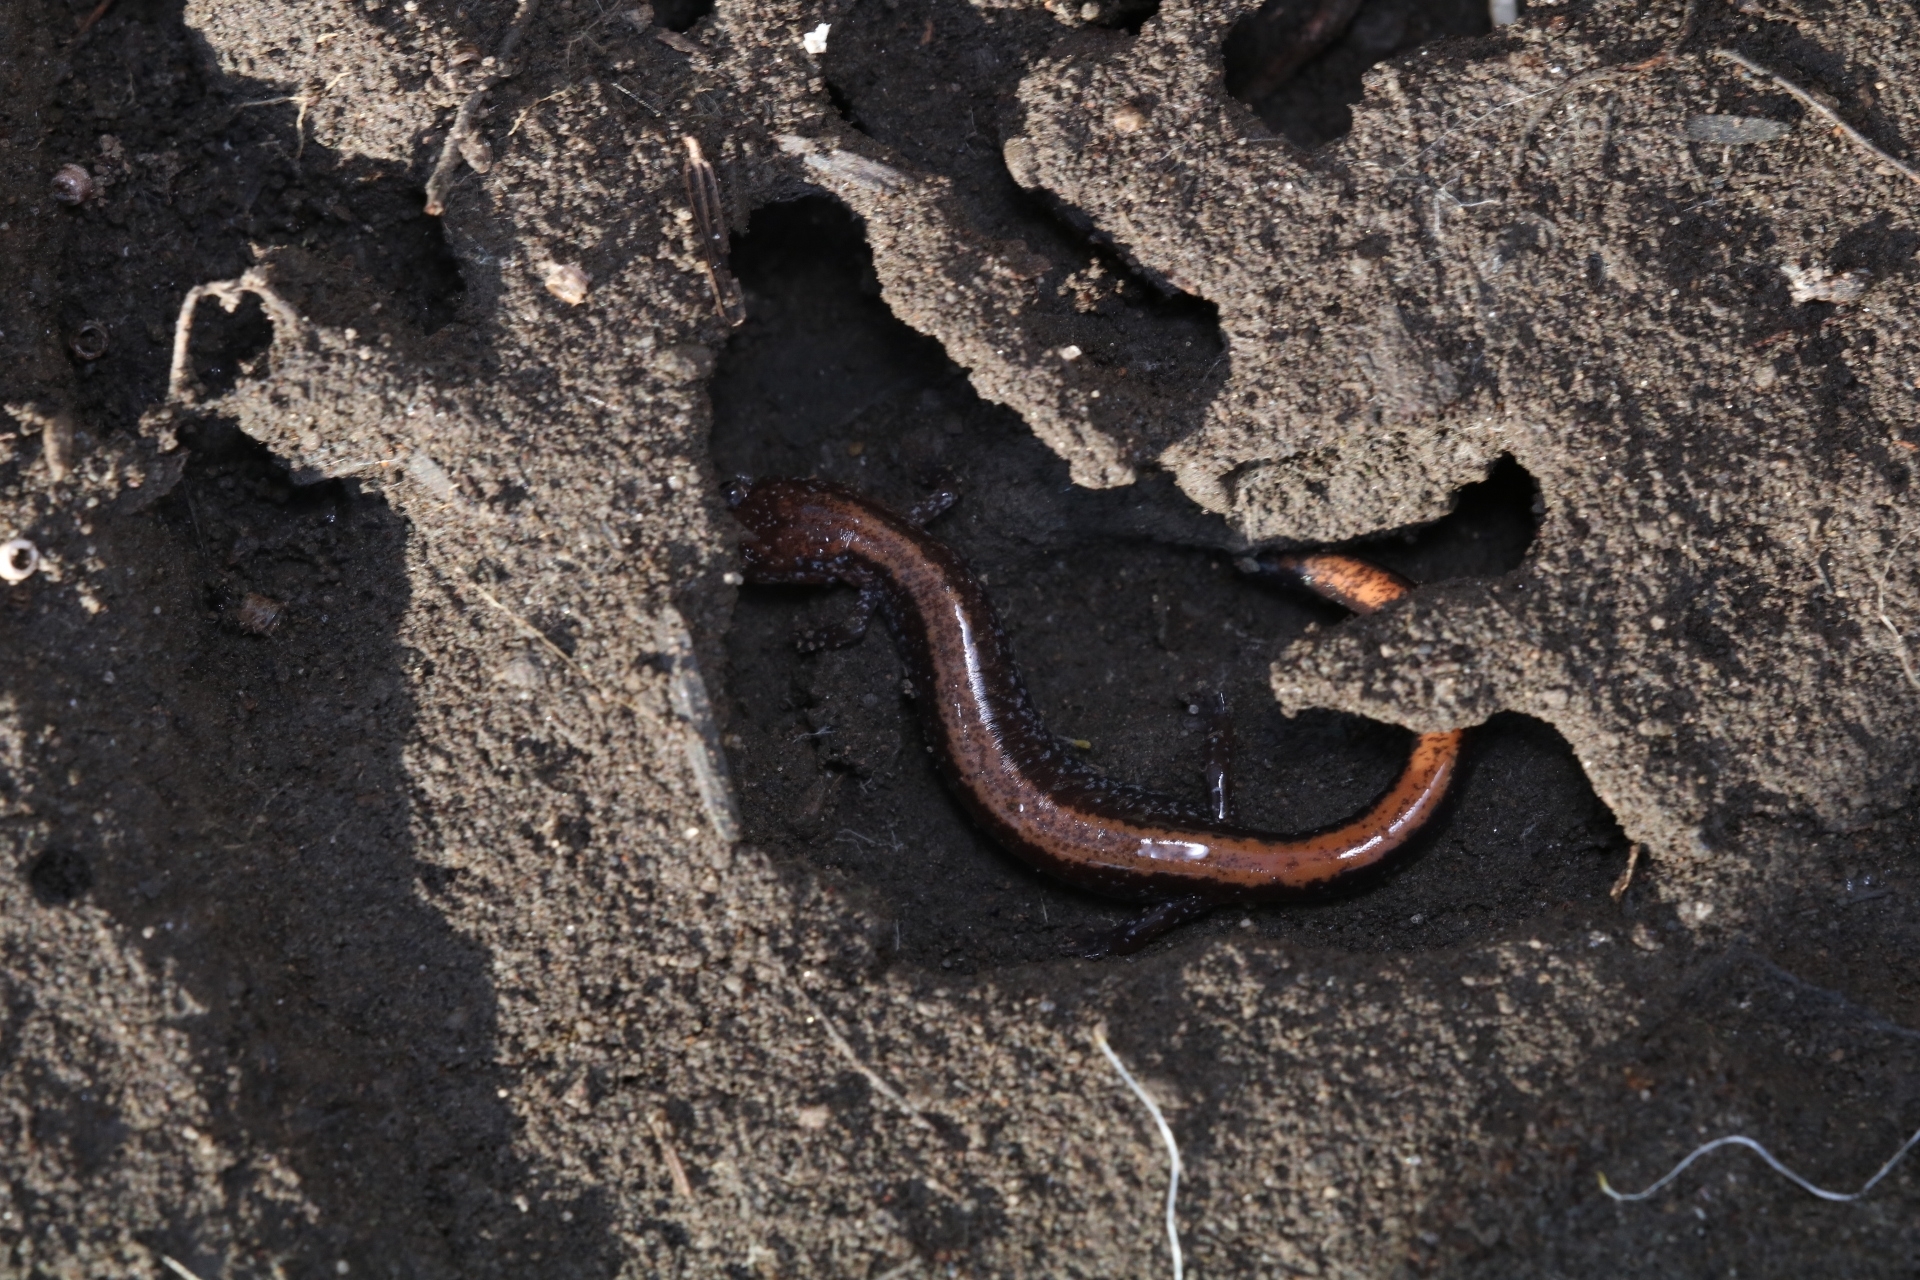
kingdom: Animalia
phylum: Chordata
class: Amphibia
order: Caudata
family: Plethodontidae
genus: Plethodon
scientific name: Plethodon cinereus
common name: Redback salamander
